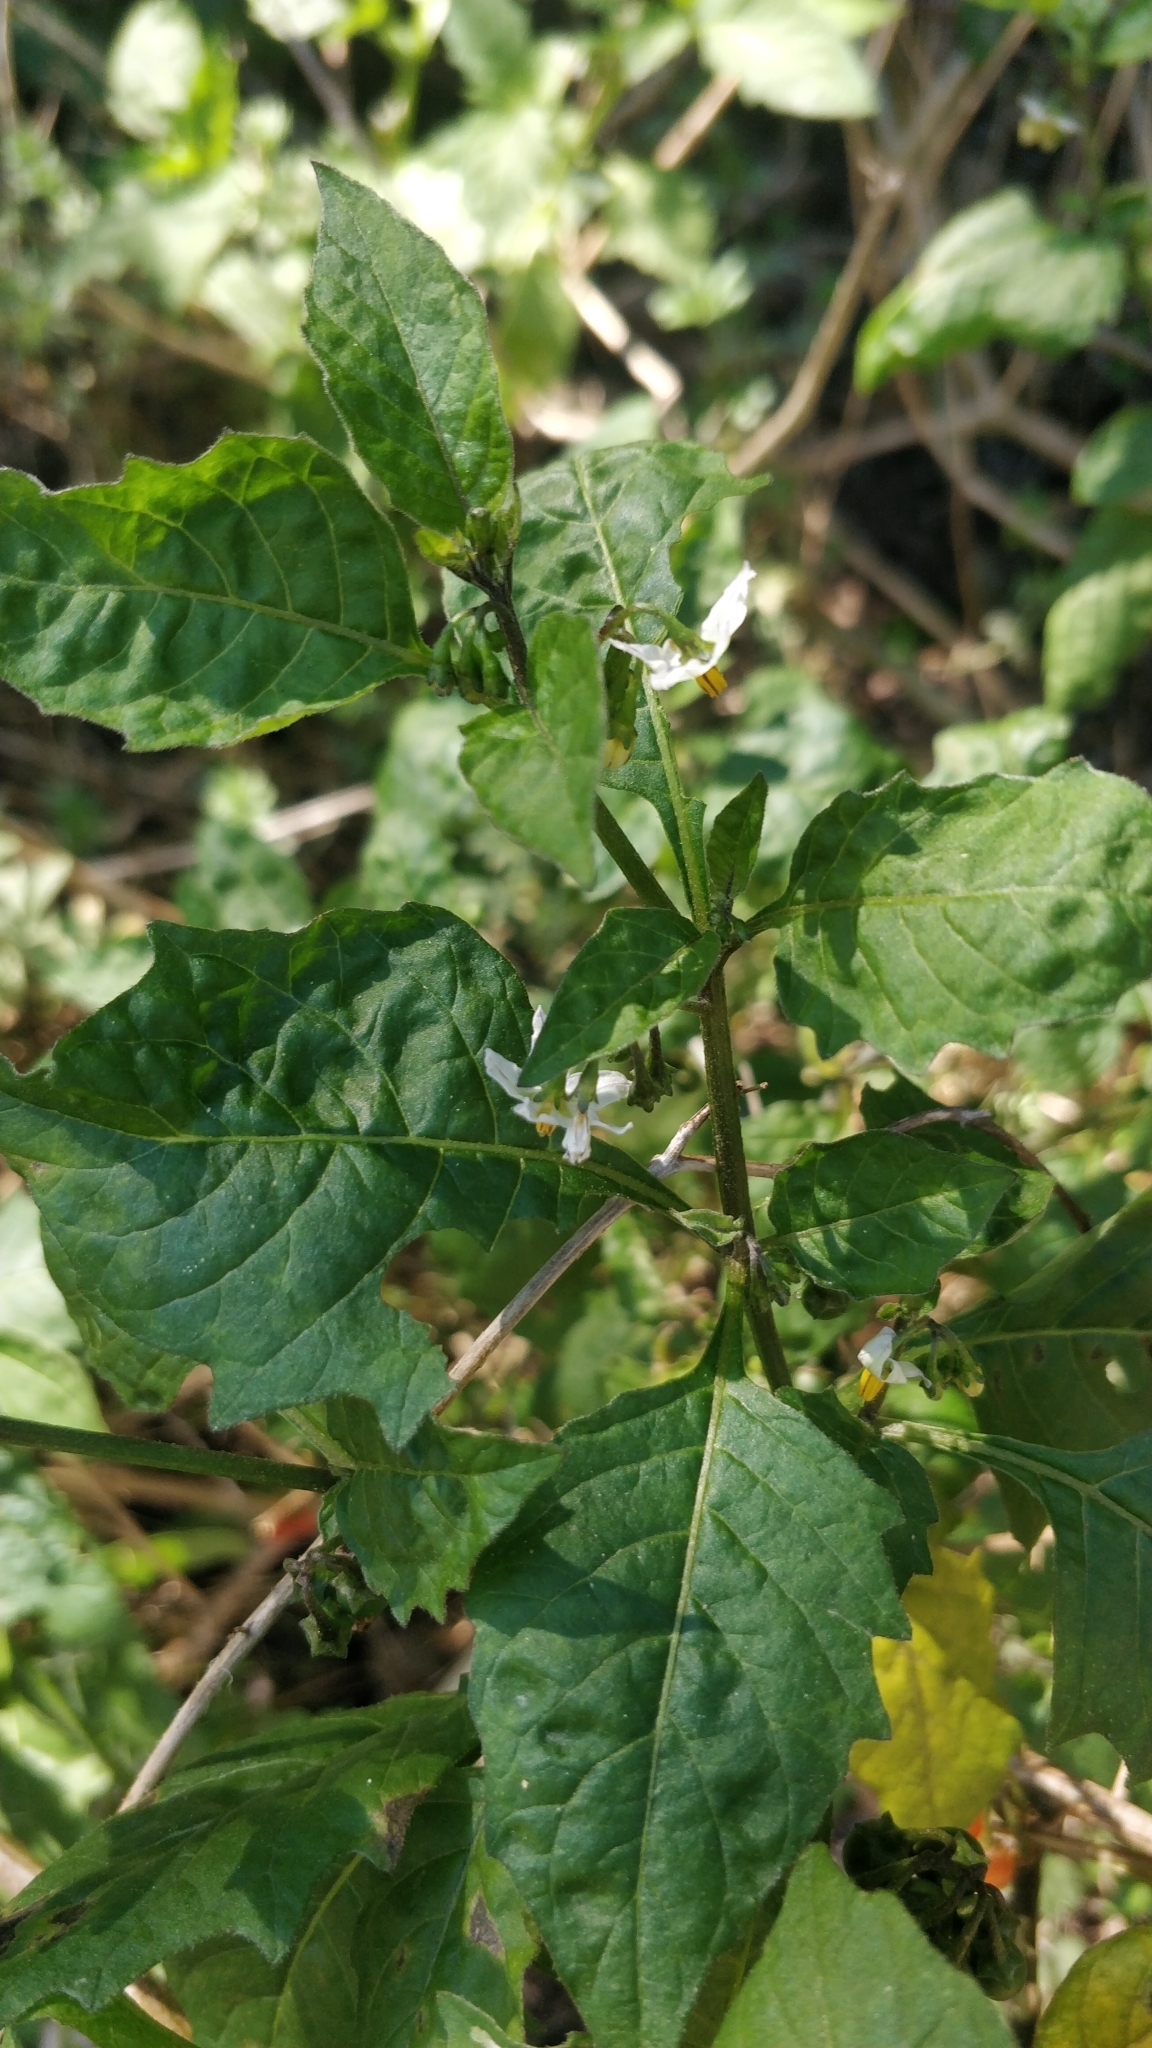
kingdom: Plantae
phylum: Tracheophyta
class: Magnoliopsida
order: Solanales
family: Solanaceae
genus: Solanum
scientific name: Solanum villosum
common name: Red nightshade
